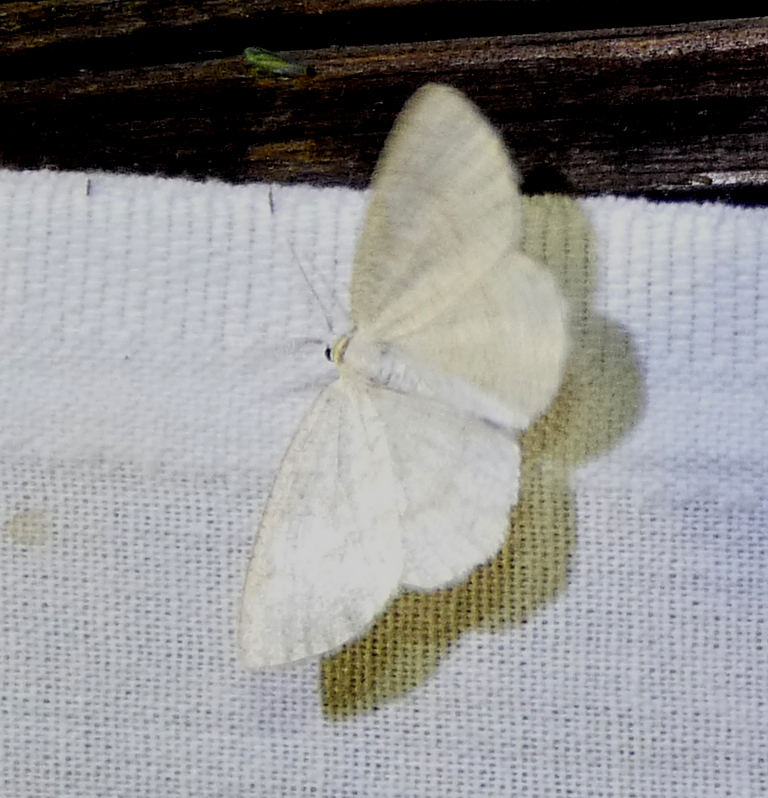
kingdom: Animalia
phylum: Arthropoda
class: Insecta
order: Lepidoptera
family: Geometridae
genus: Cabera
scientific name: Cabera exanthemata
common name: Common wave
